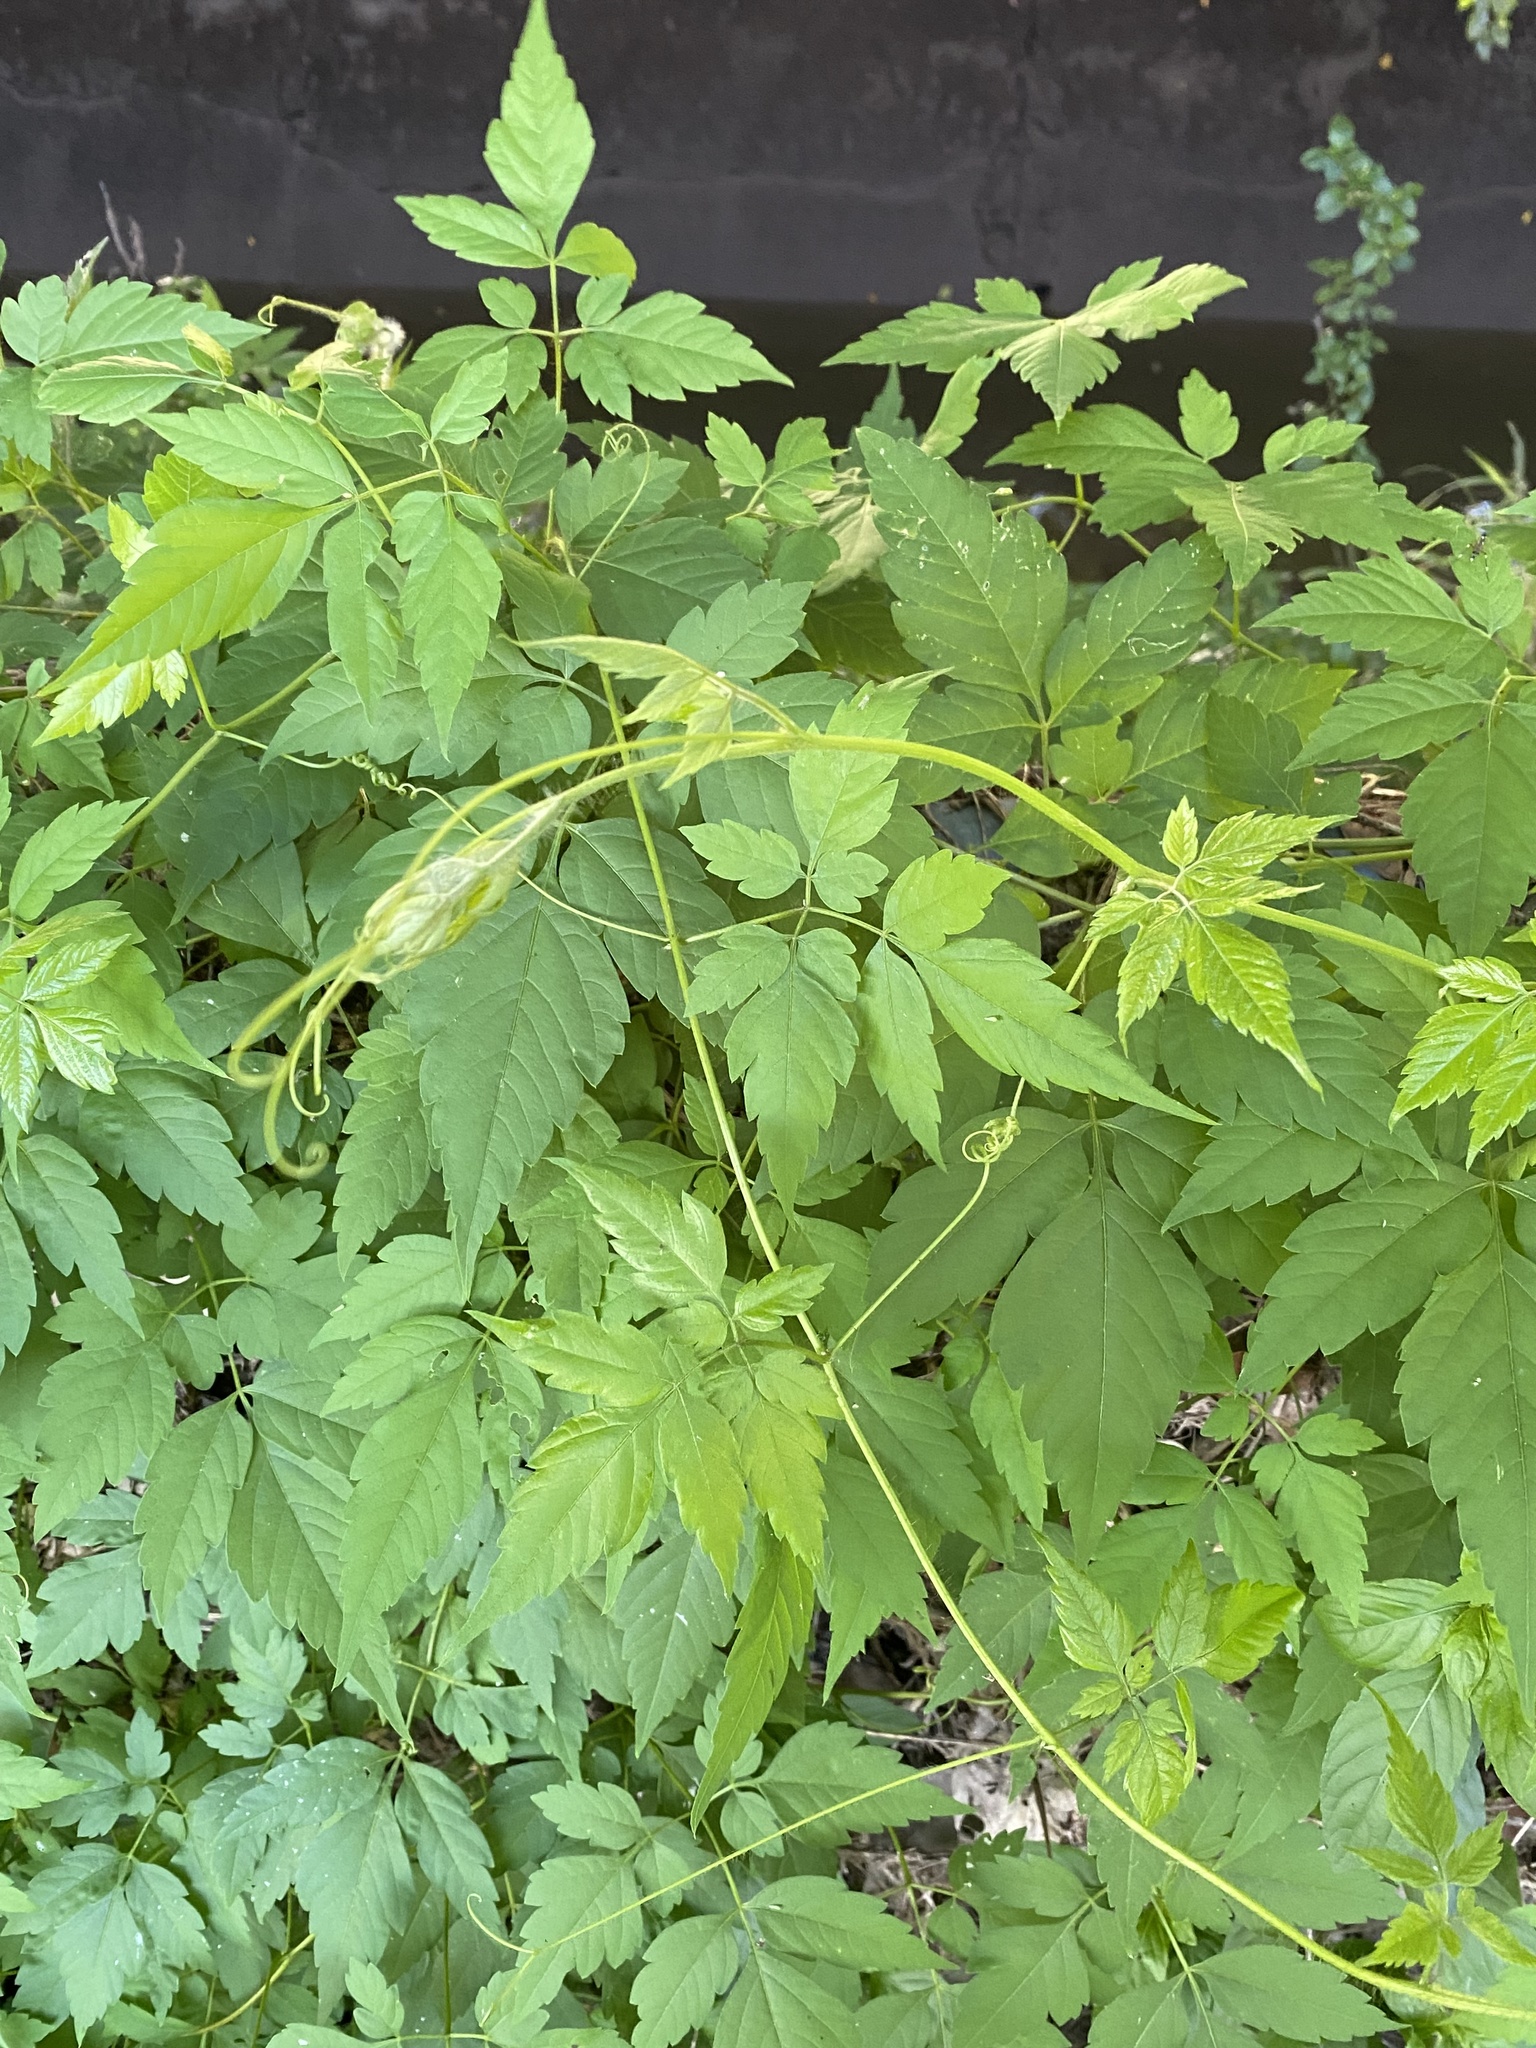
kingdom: Plantae
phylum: Tracheophyta
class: Magnoliopsida
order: Sapindales
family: Sapindaceae
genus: Cardiospermum
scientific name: Cardiospermum grandiflorum
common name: Balloon vine
